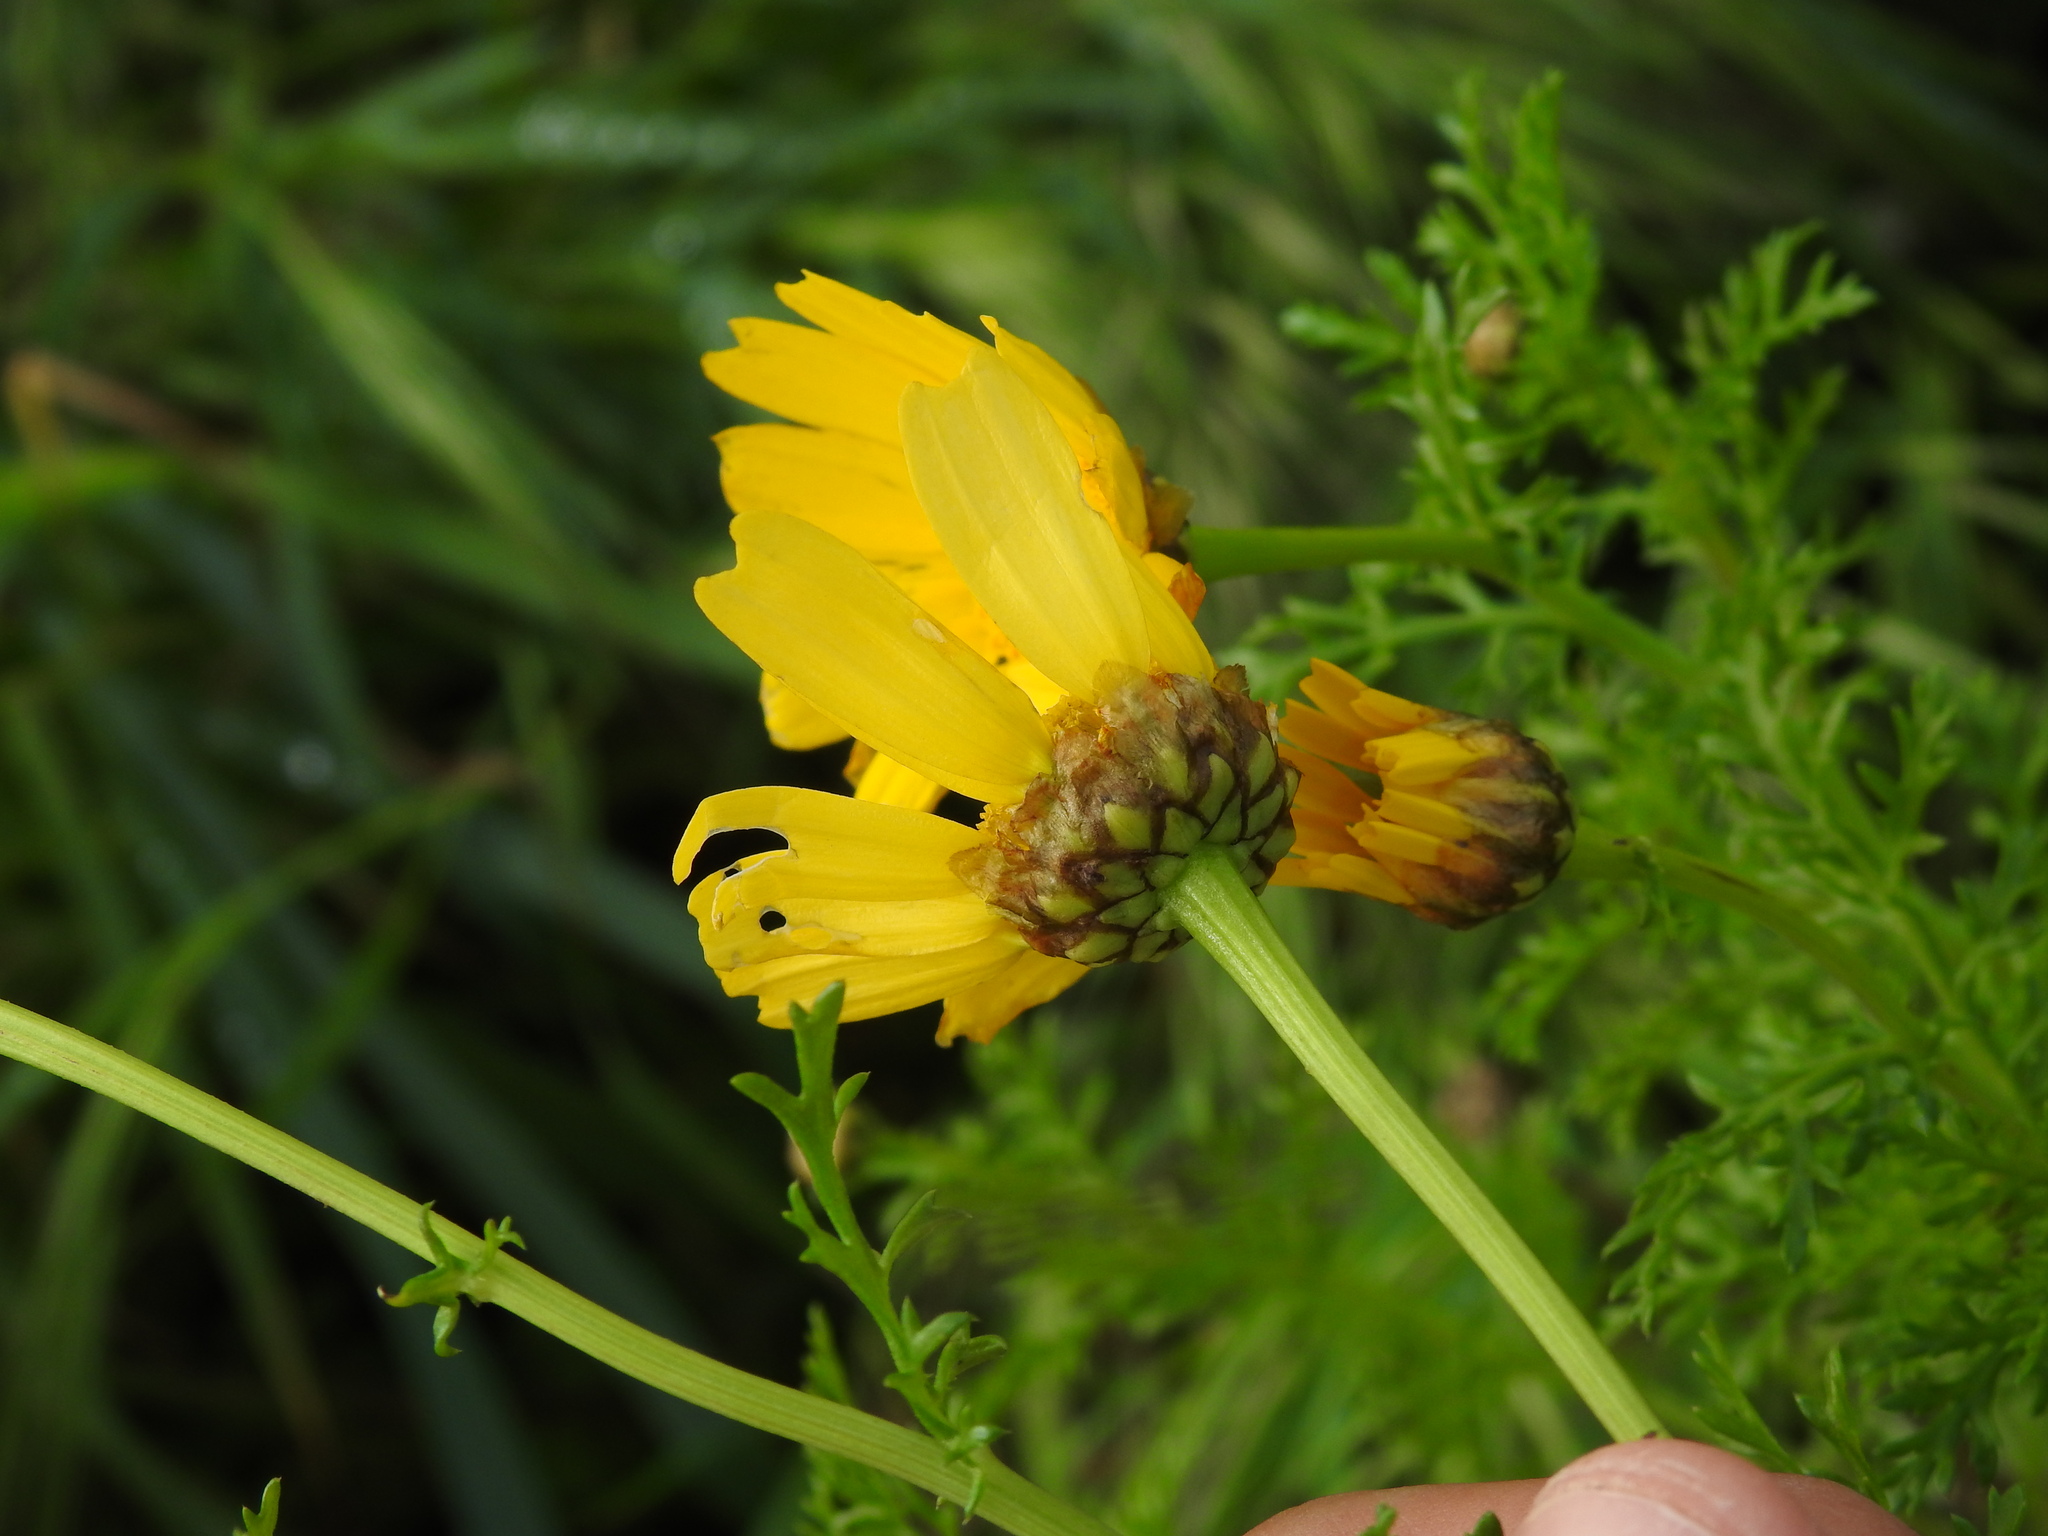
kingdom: Plantae
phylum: Tracheophyta
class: Magnoliopsida
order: Asterales
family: Asteraceae
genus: Glebionis
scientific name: Glebionis coronaria
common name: Crowndaisy
